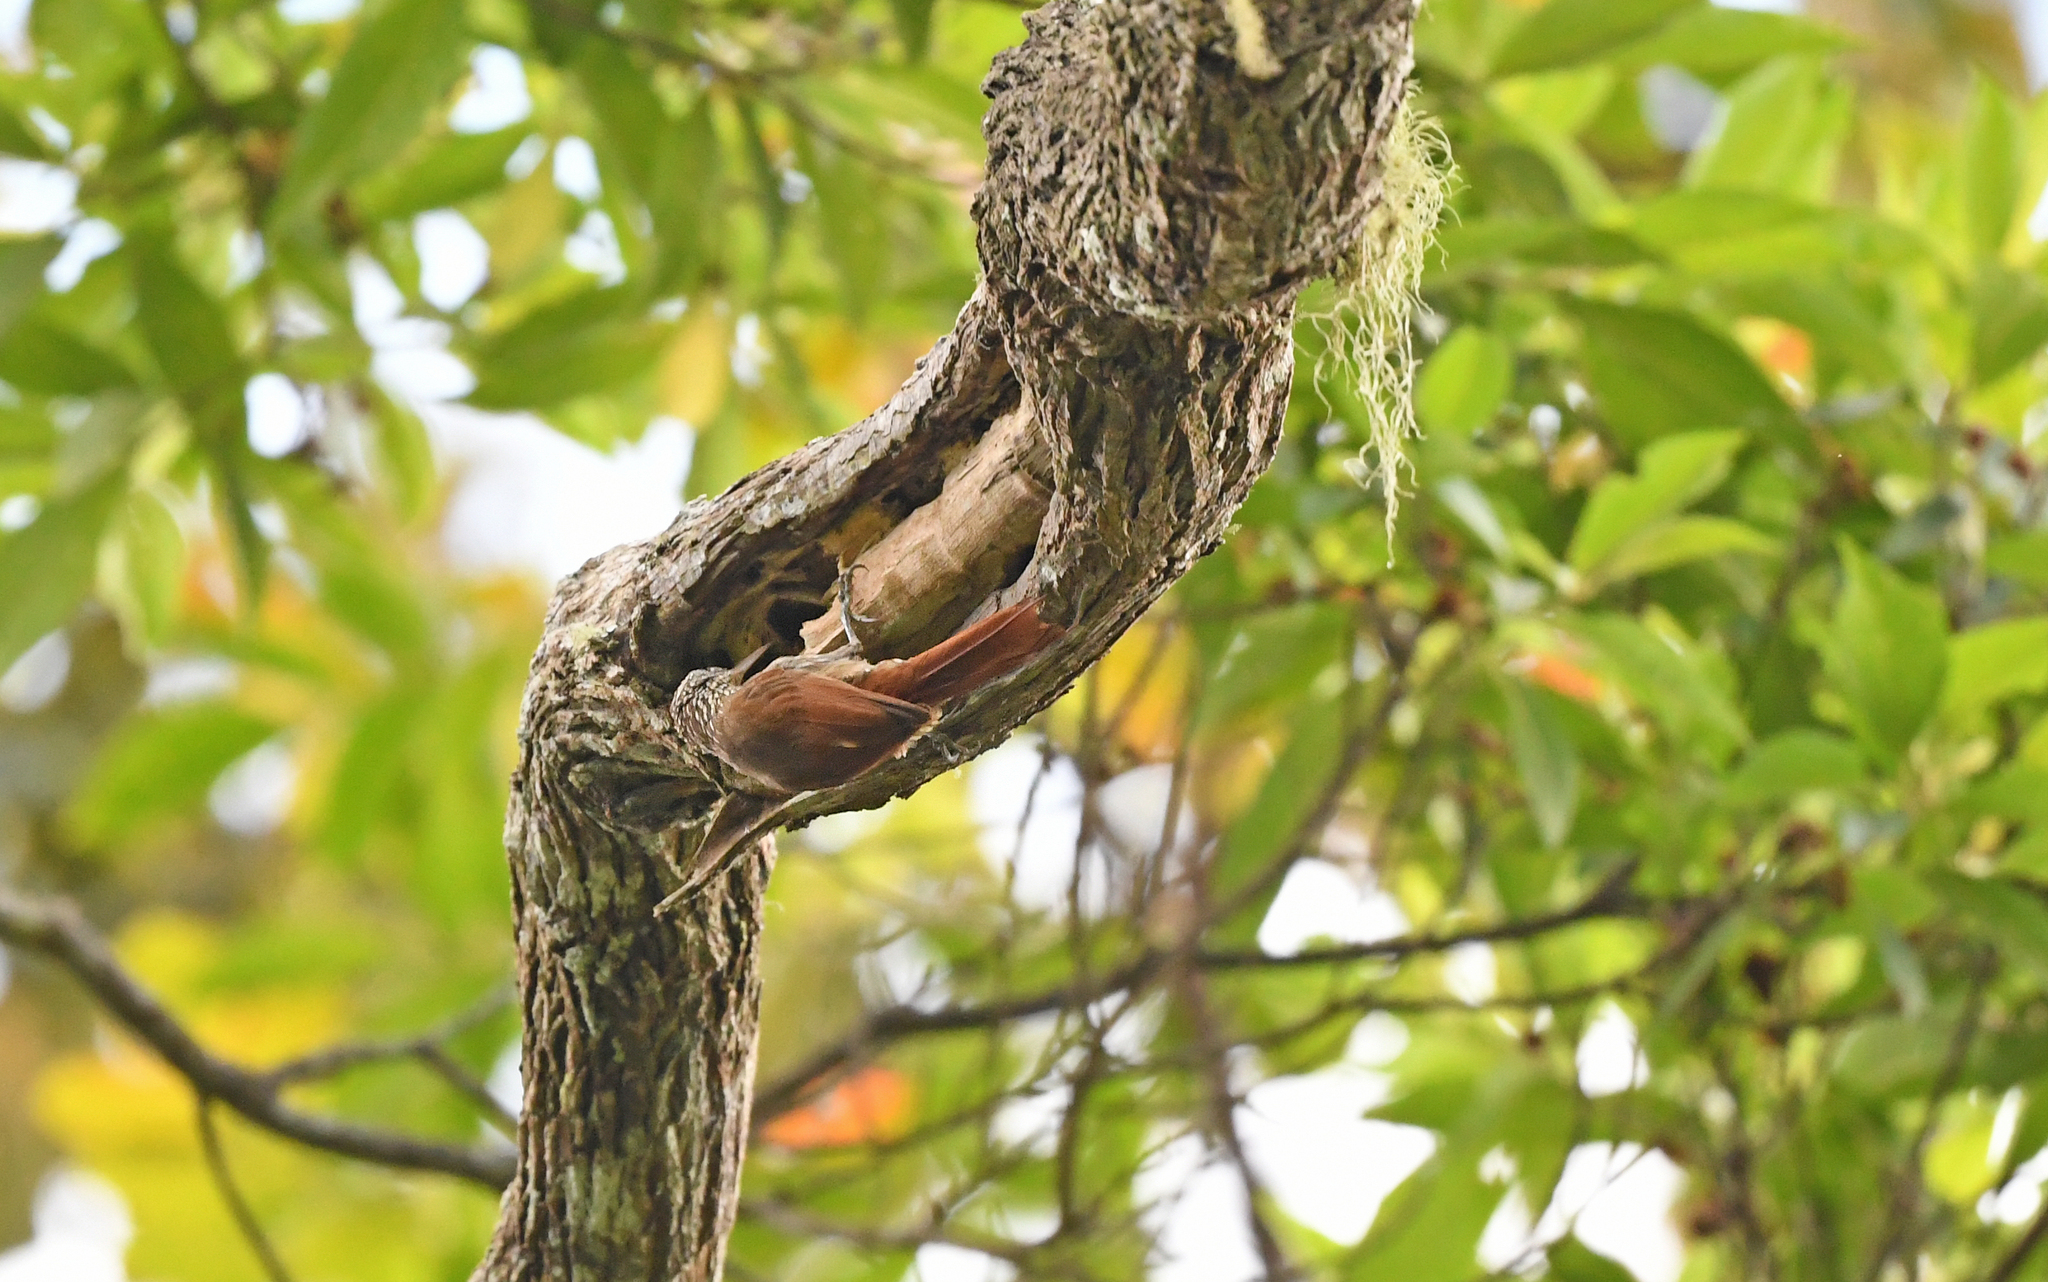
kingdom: Animalia
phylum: Chordata
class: Aves
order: Passeriformes
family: Furnariidae
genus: Lepidocolaptes
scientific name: Lepidocolaptes souleyetii
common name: Streak-headed woodcreeper
